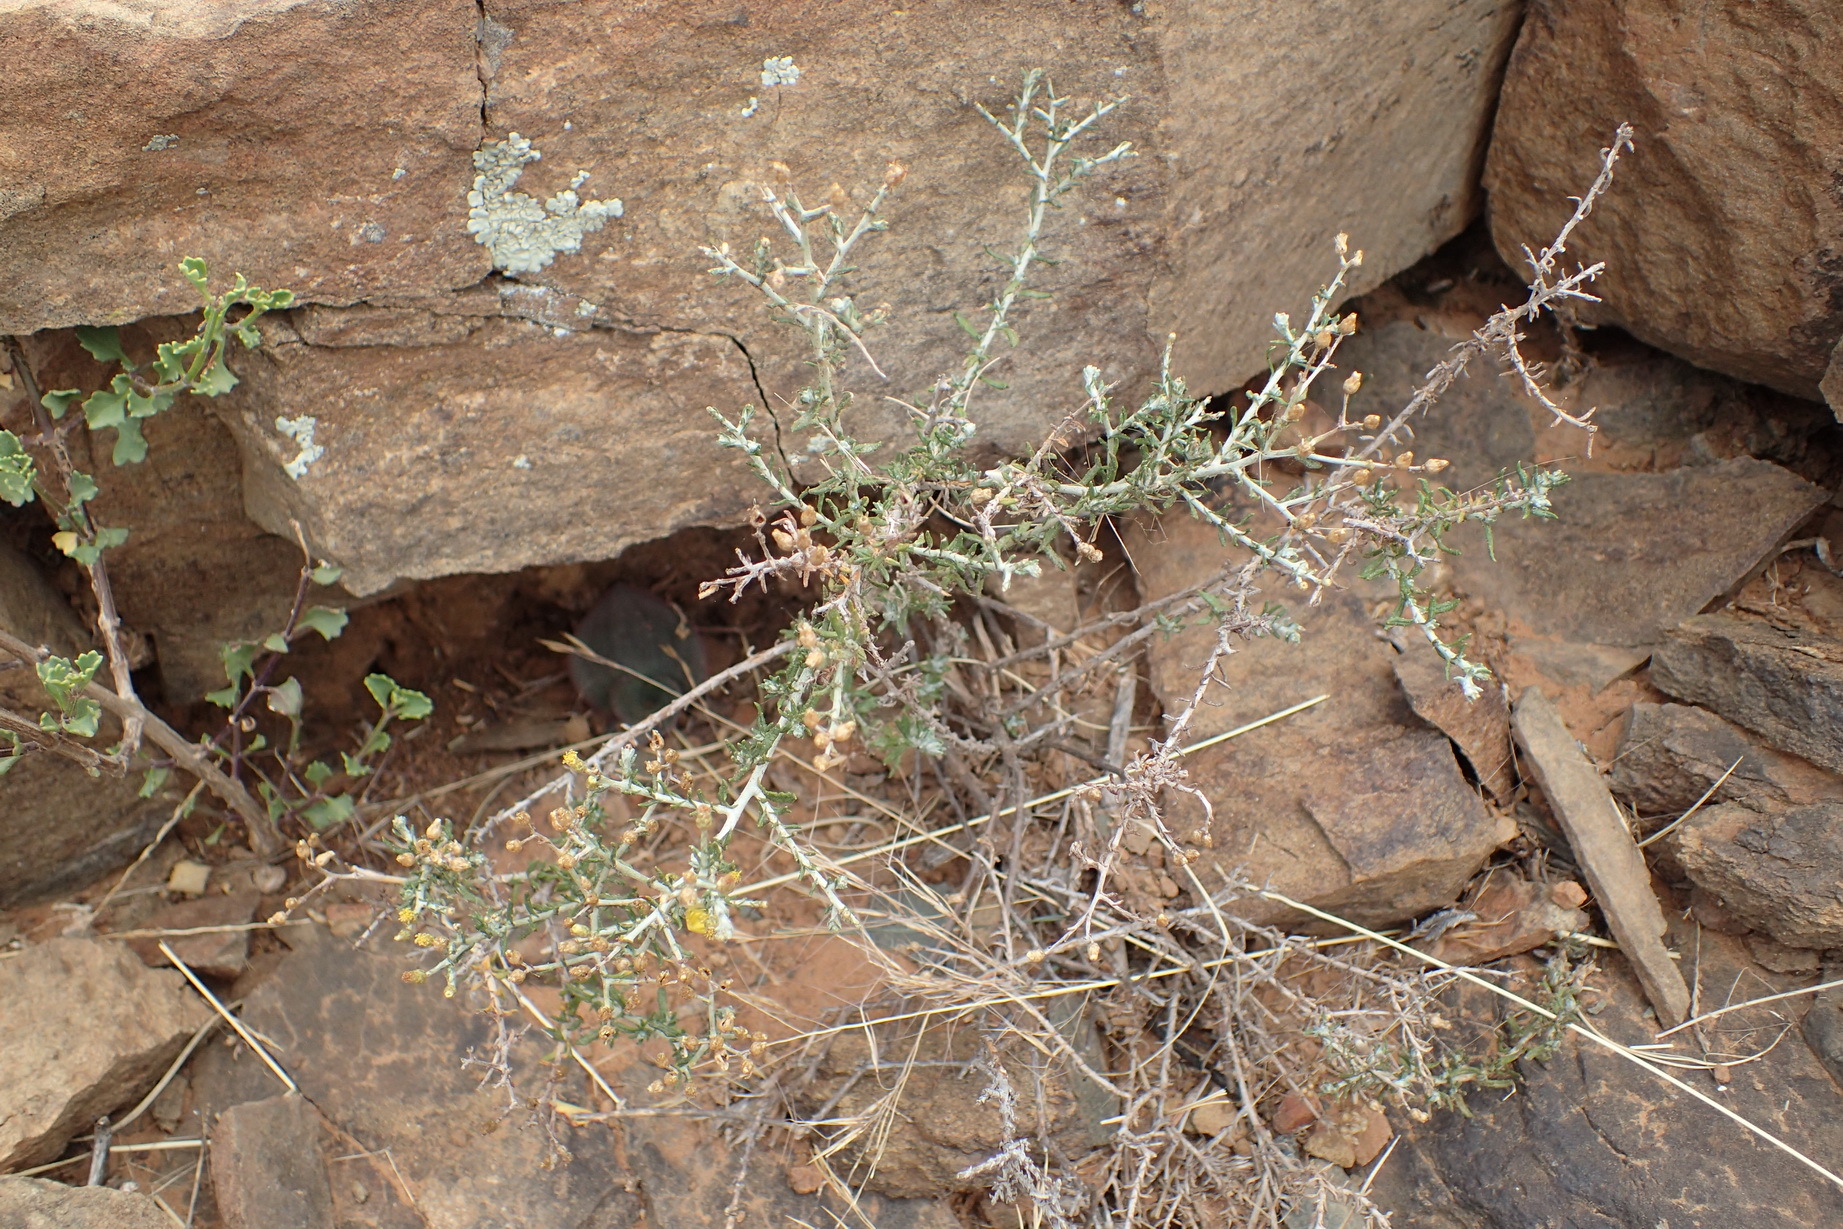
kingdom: Plantae
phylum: Tracheophyta
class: Magnoliopsida
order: Asterales
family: Asteraceae
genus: Helichrysum
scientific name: Helichrysum rosum
